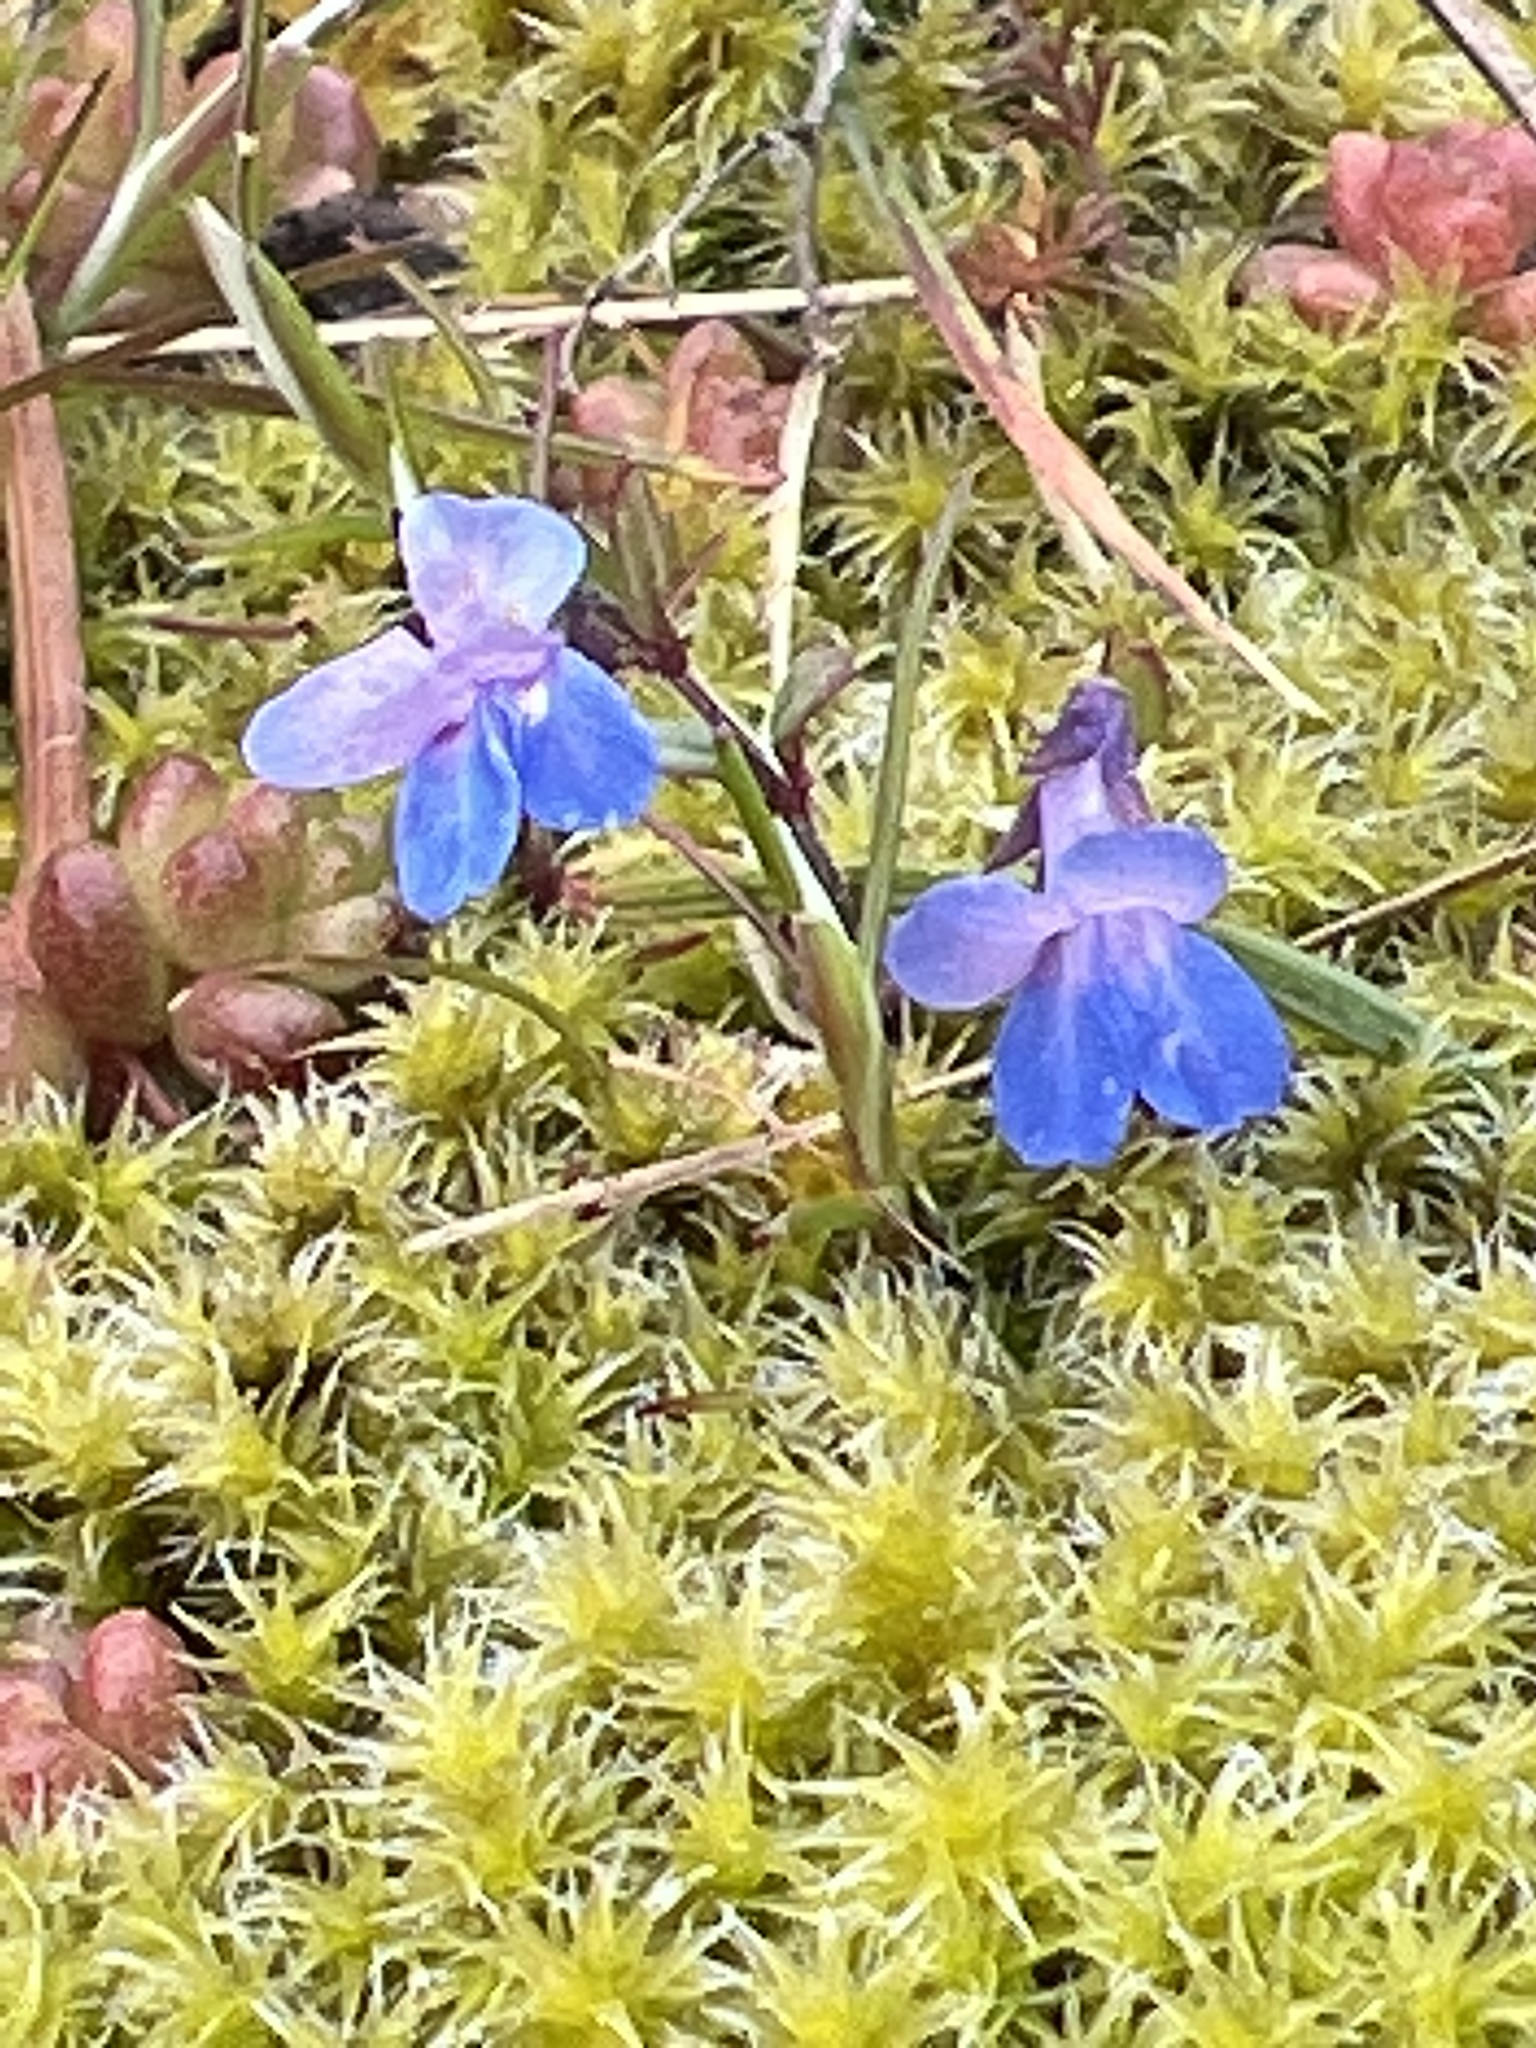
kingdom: Plantae
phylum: Tracheophyta
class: Magnoliopsida
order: Lamiales
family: Plantaginaceae
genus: Collinsia
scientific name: Collinsia parviflora
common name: Blue-lips
